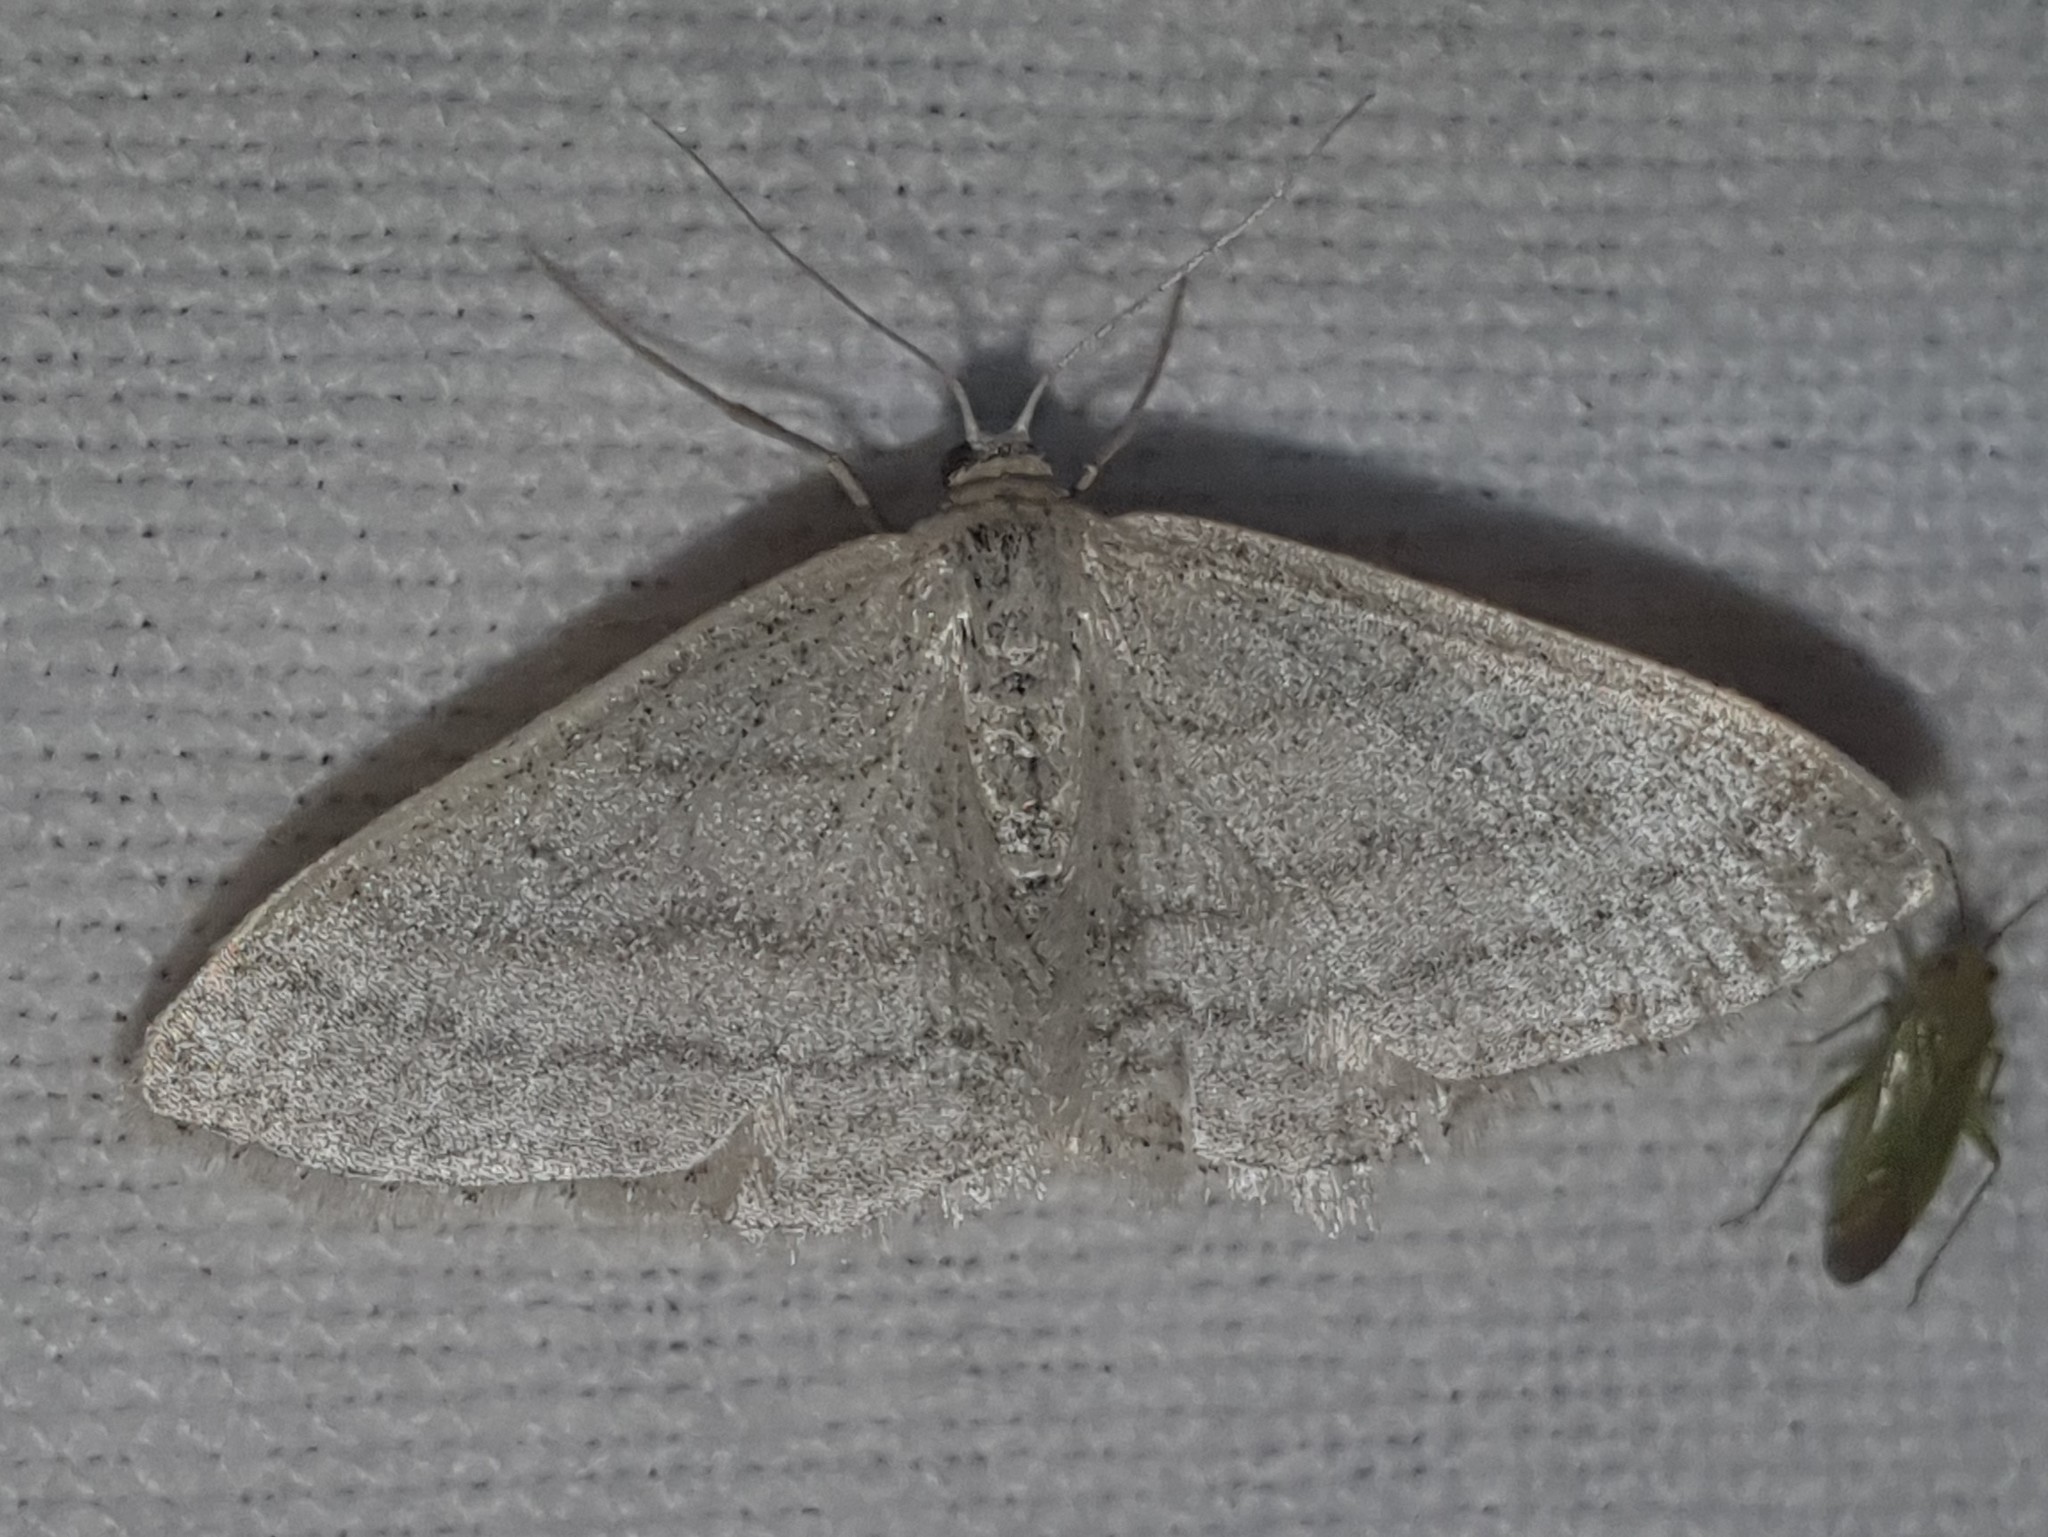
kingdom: Animalia
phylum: Arthropoda
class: Insecta
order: Lepidoptera
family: Geometridae
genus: Idaea
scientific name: Idaea subsericeata
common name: Satin wave
